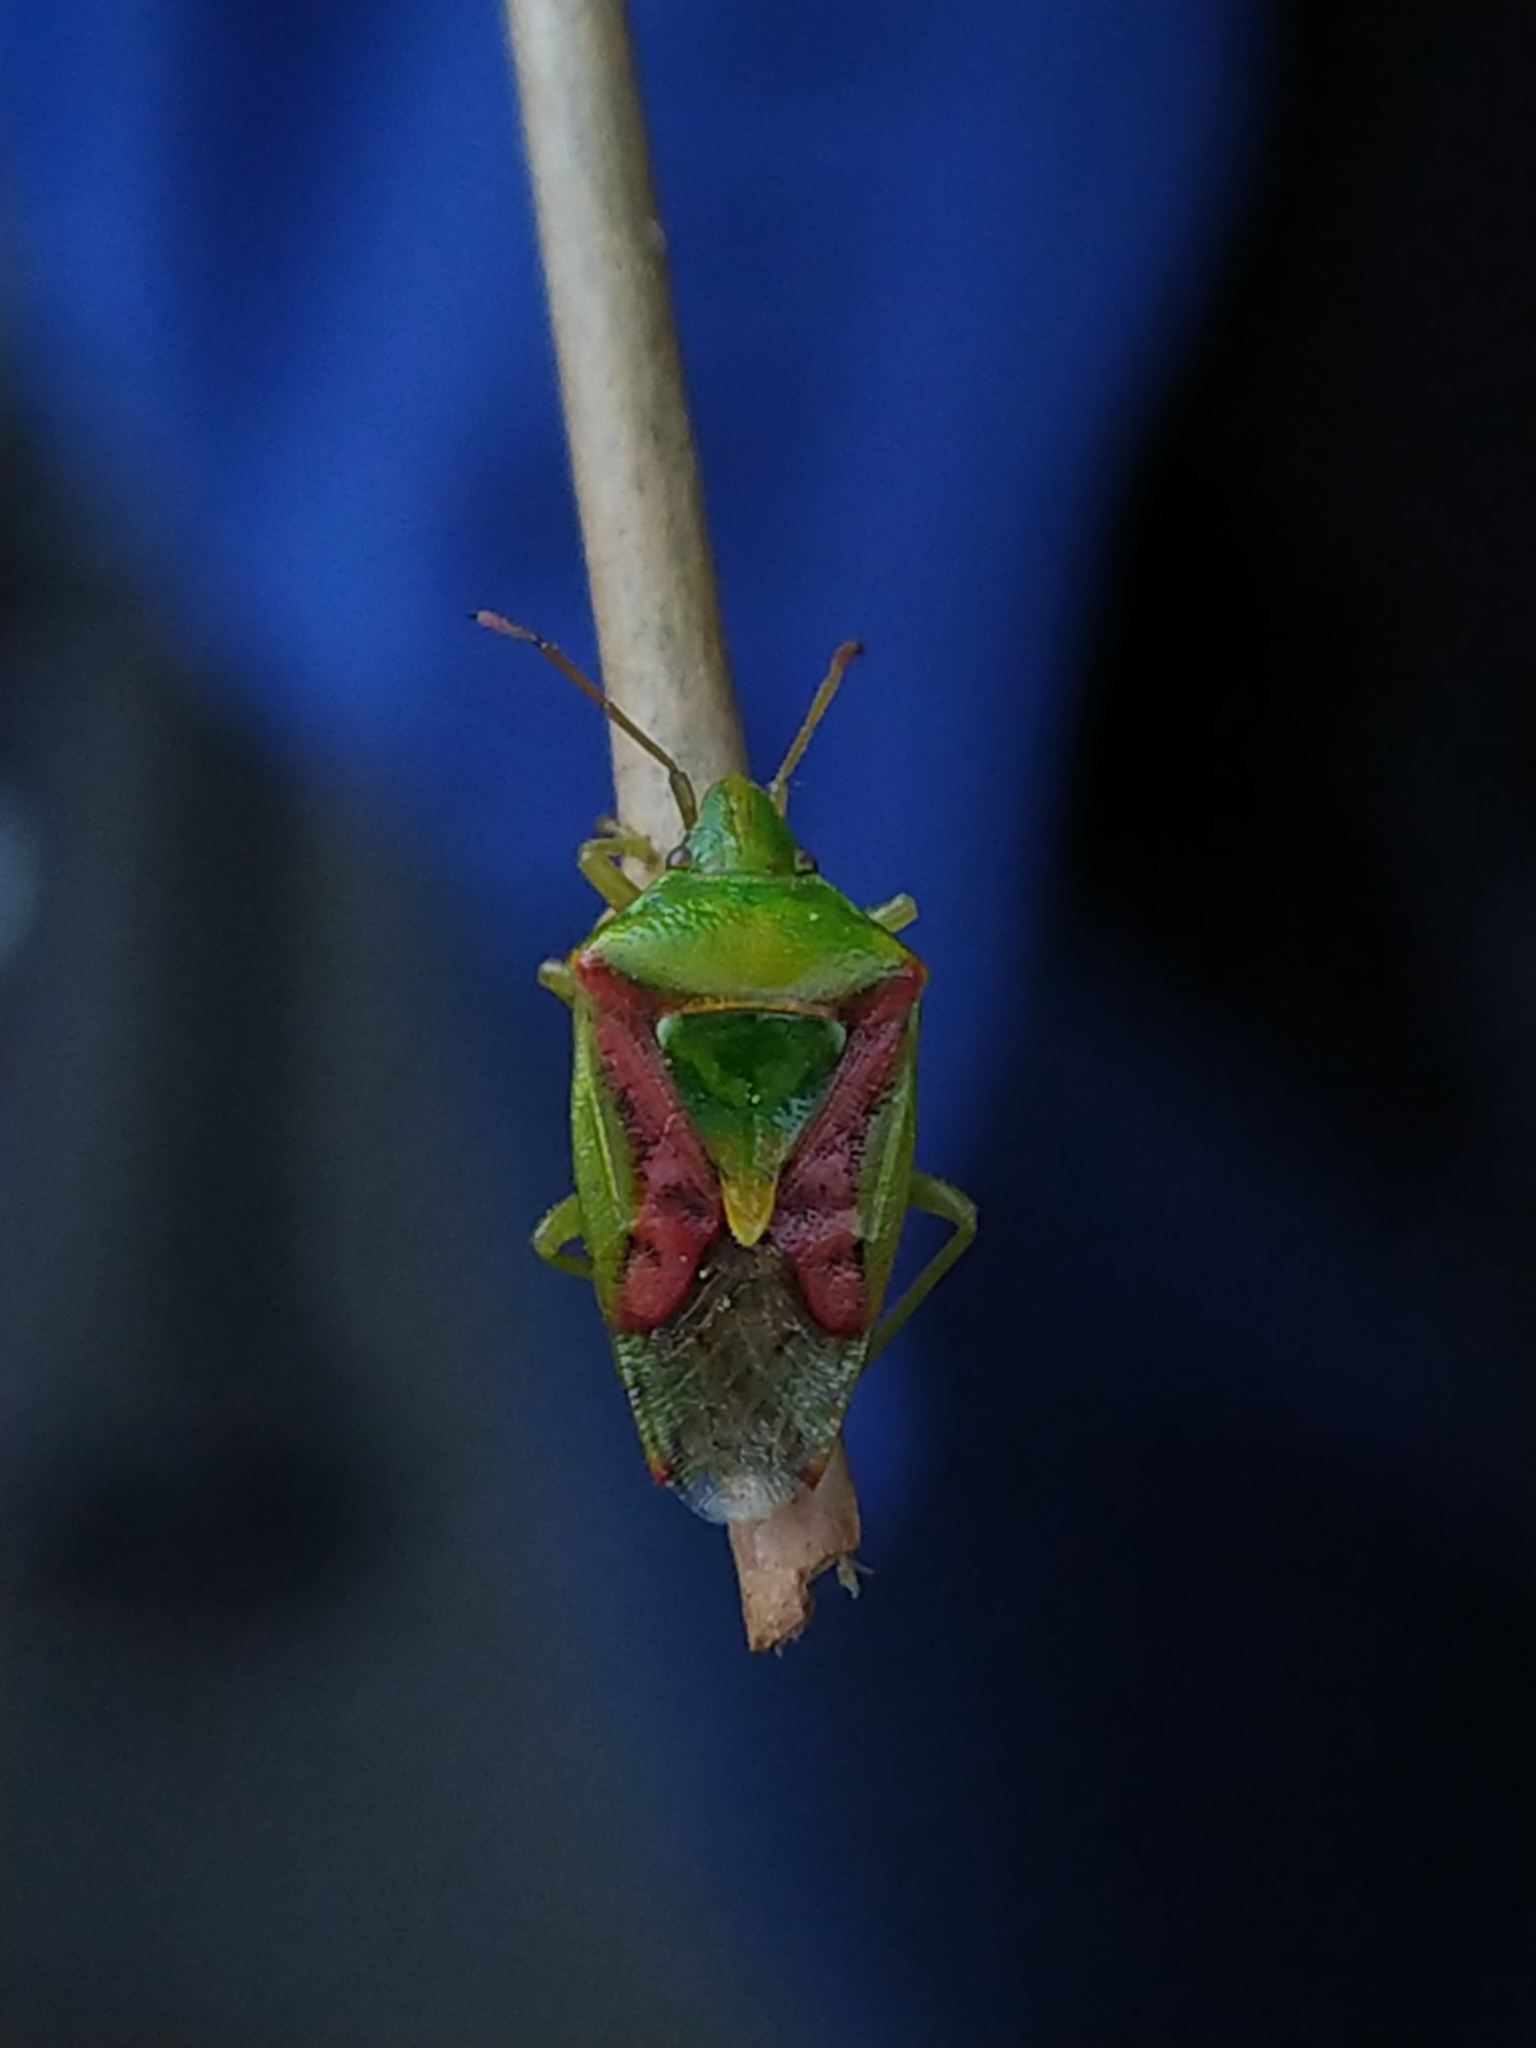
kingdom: Animalia
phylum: Arthropoda
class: Insecta
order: Hemiptera
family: Acanthosomatidae
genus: Cyphostethus
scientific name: Cyphostethus tristriatus
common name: Juniper shieldbug
